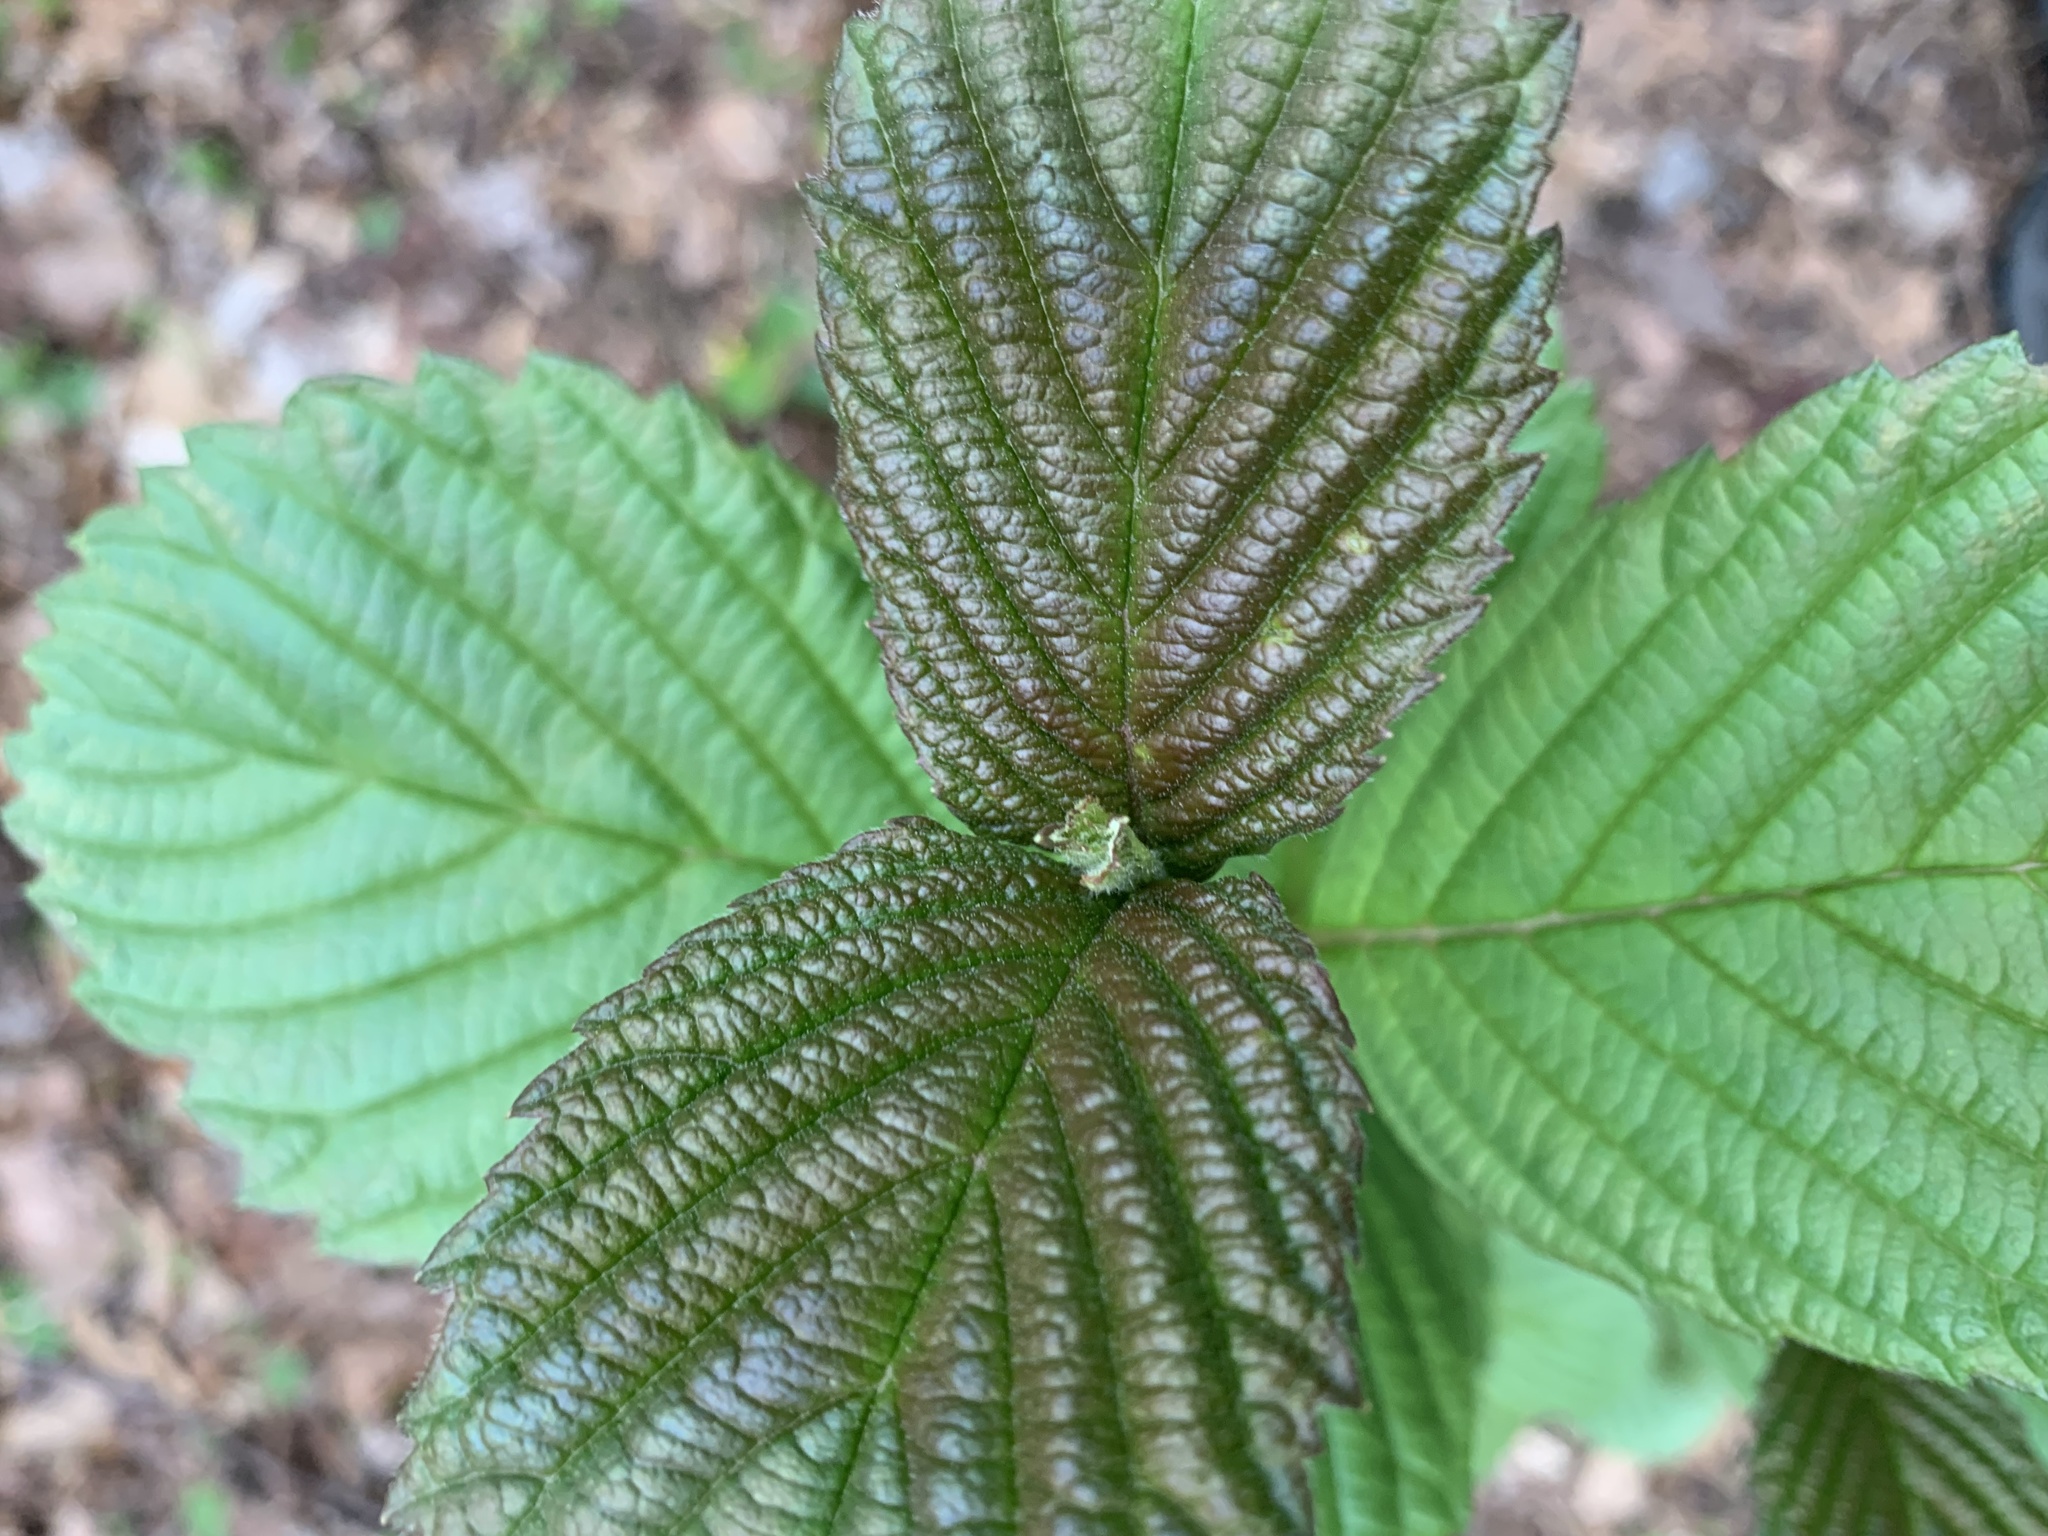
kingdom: Plantae
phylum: Tracheophyta
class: Magnoliopsida
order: Dipsacales
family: Viburnaceae
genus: Viburnum
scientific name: Viburnum sieboldii
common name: Siebold's arrowwood
